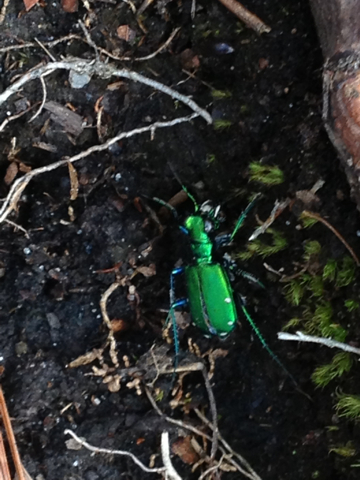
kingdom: Animalia
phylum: Arthropoda
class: Insecta
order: Coleoptera
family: Carabidae
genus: Cicindela
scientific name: Cicindela sexguttata
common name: Six-spotted tiger beetle
